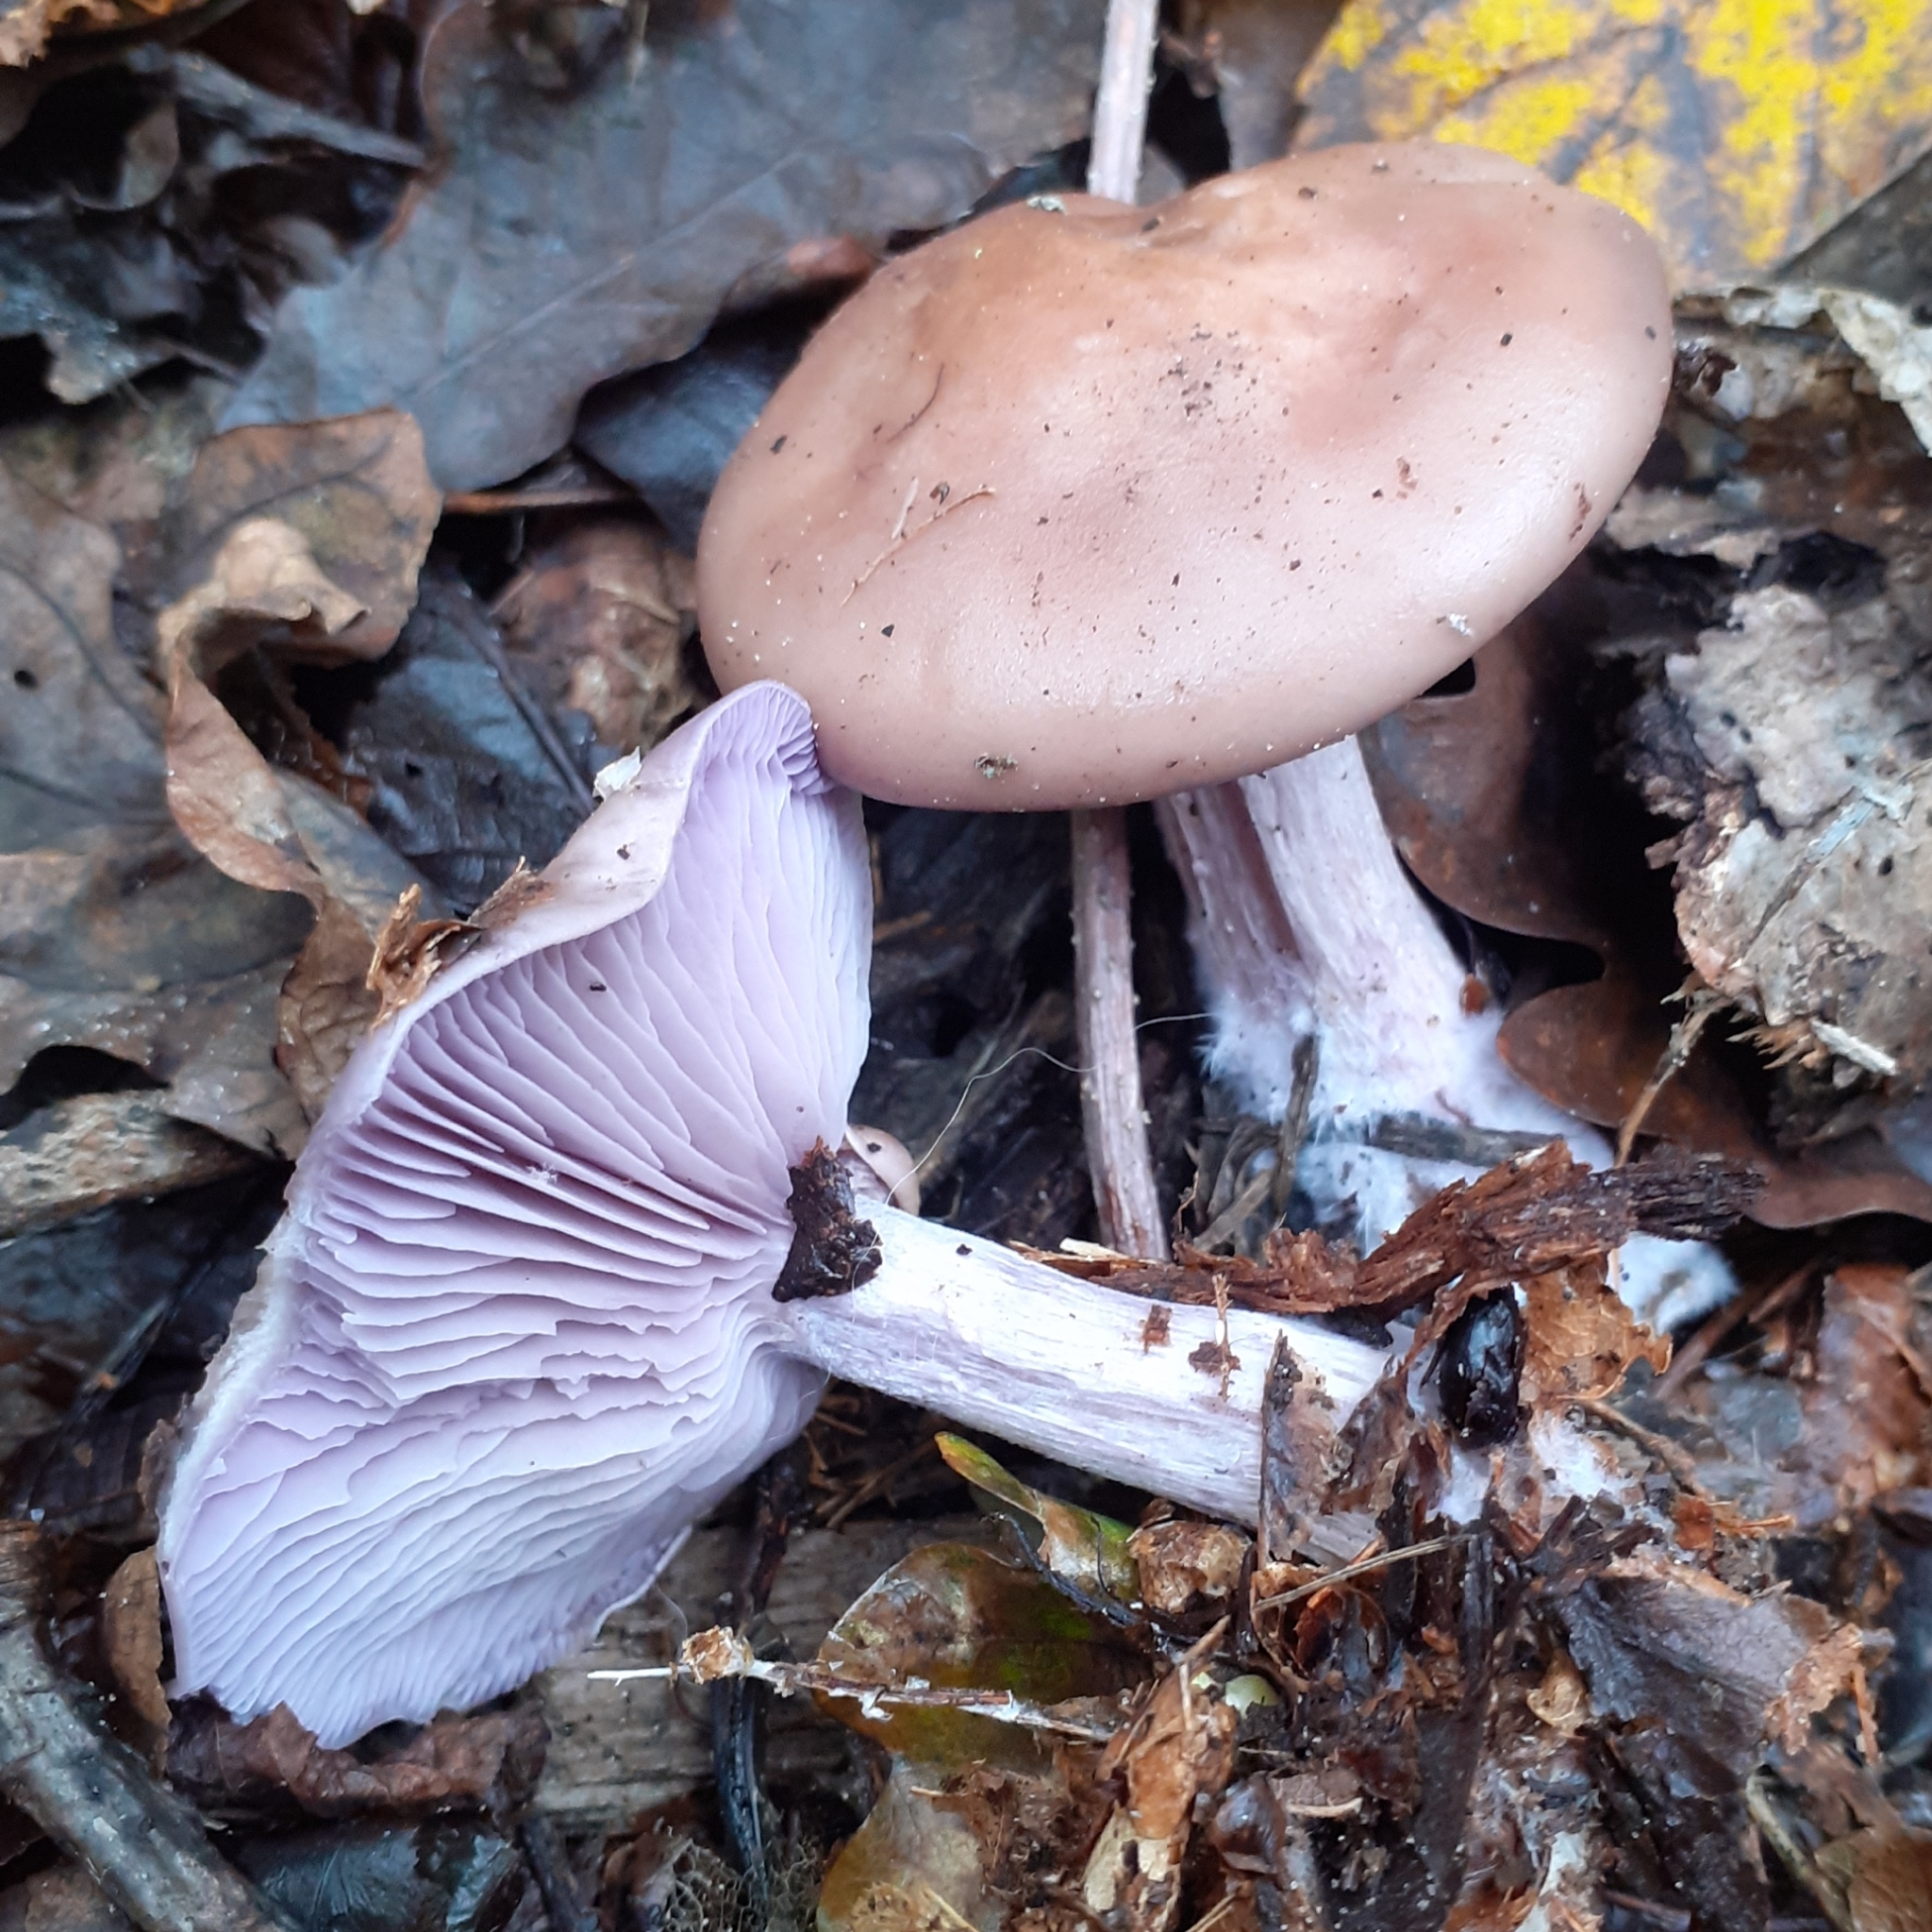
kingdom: Fungi
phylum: Basidiomycota
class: Agaricomycetes
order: Agaricales
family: Tricholomataceae
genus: Collybia
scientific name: Collybia
